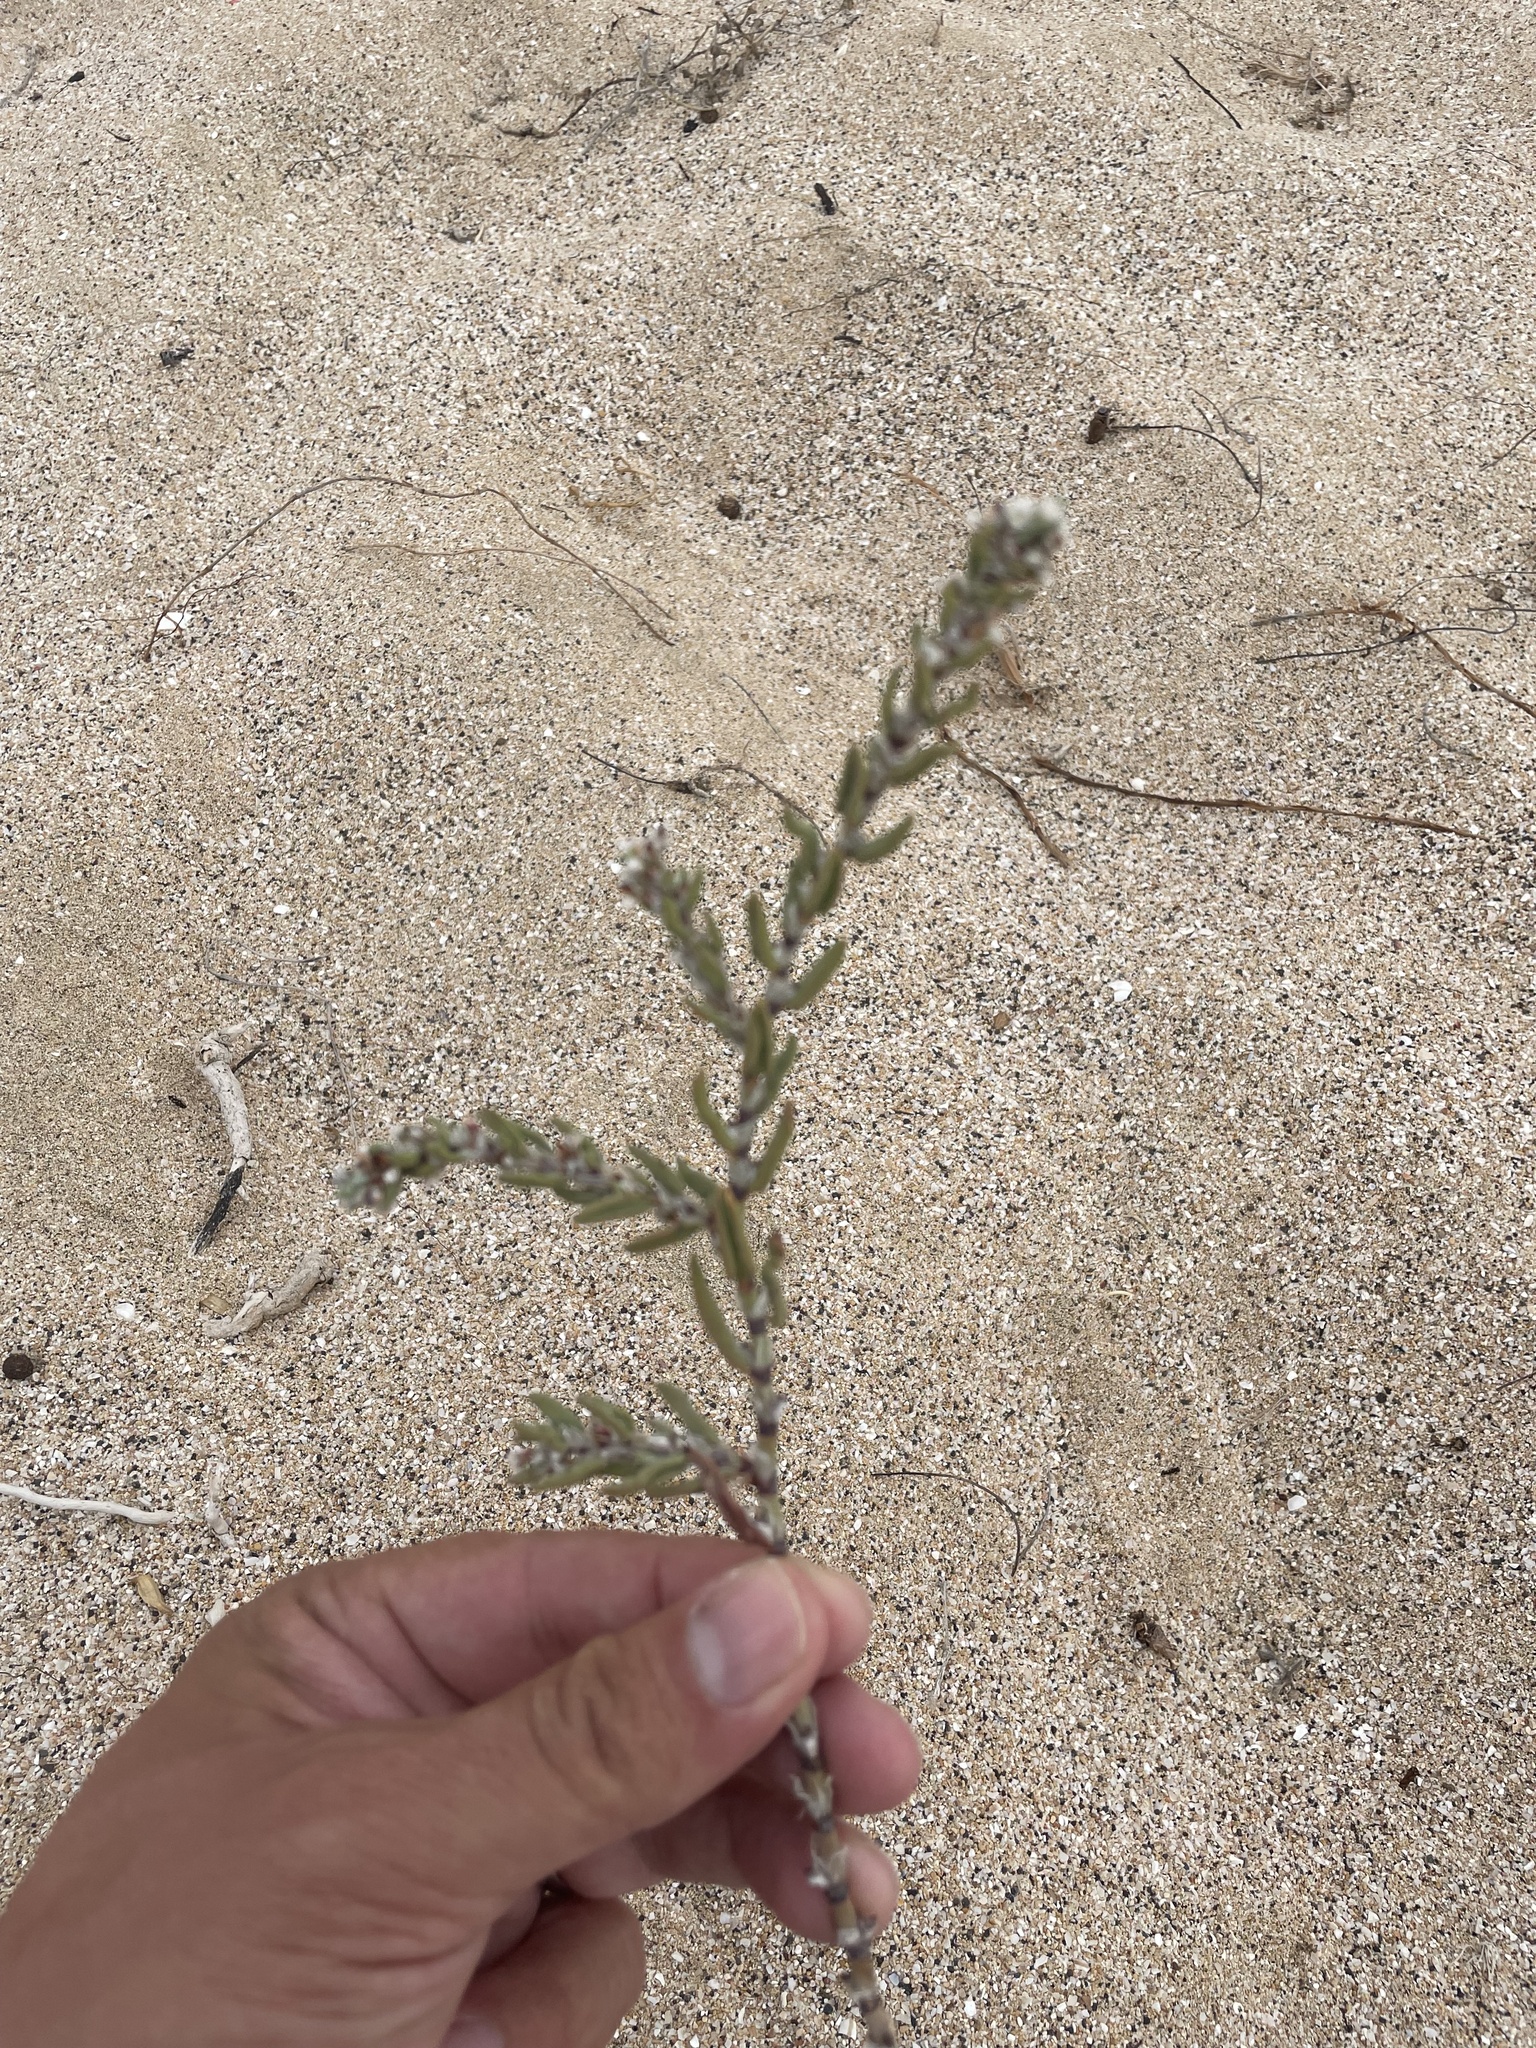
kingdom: Plantae
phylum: Tracheophyta
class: Magnoliopsida
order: Caryophyllales
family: Polygonaceae
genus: Polygonum
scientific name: Polygonum maritimum
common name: Sea knotgrass
